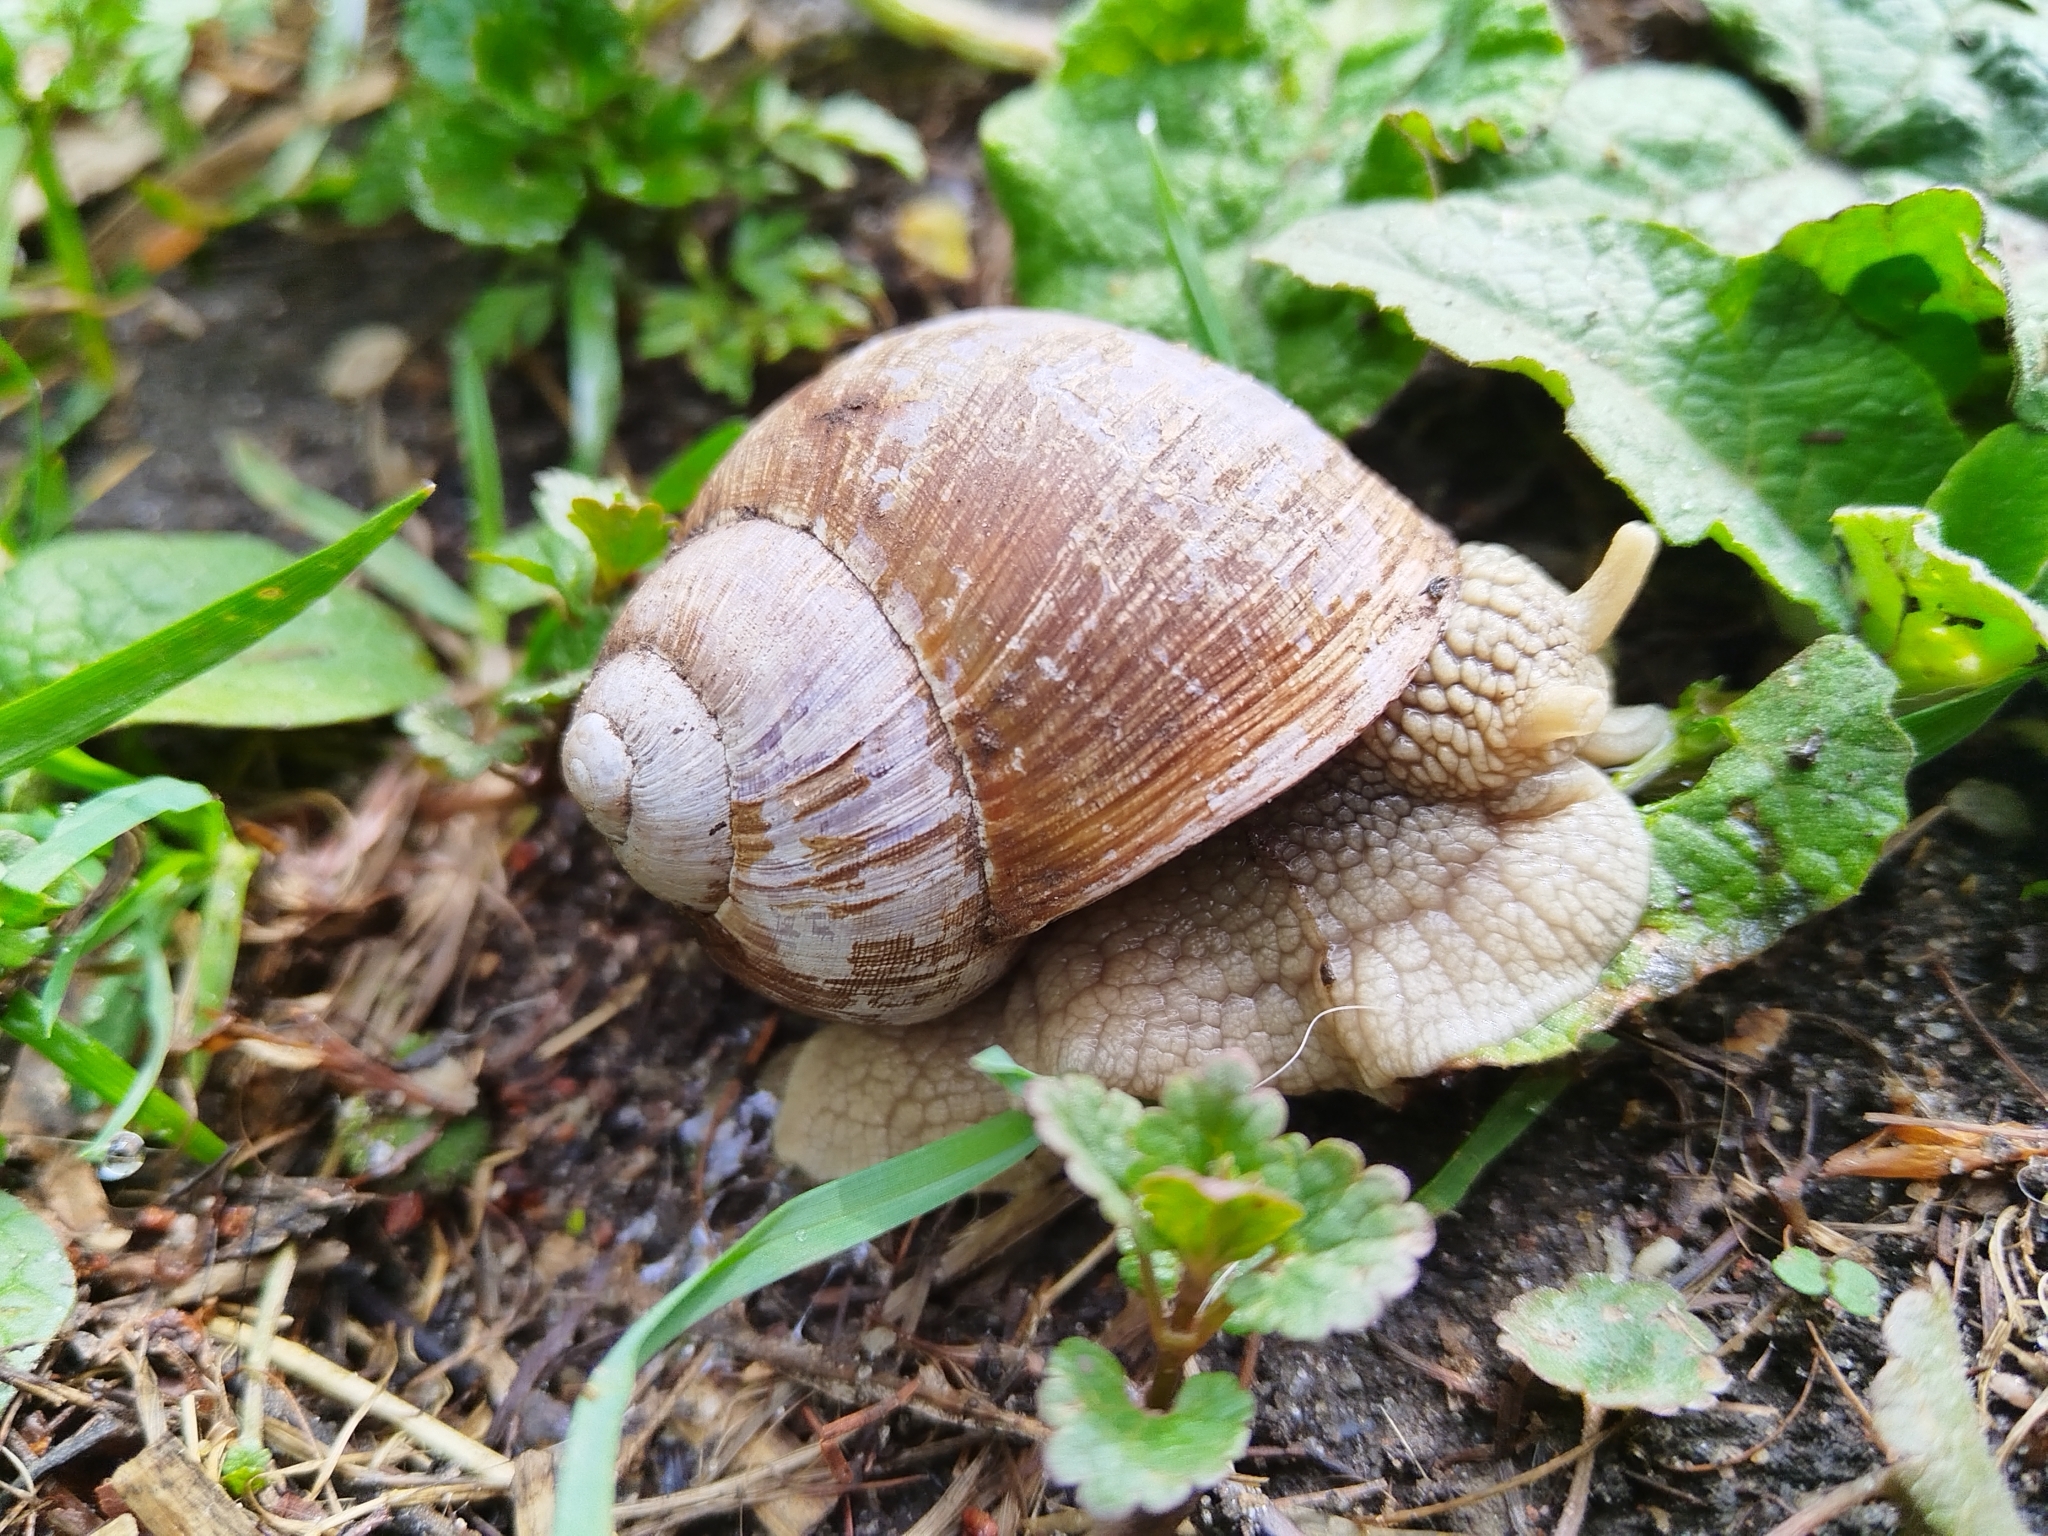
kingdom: Animalia
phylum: Mollusca
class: Gastropoda
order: Stylommatophora
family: Helicidae
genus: Helix
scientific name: Helix pomatia
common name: Roman snail
